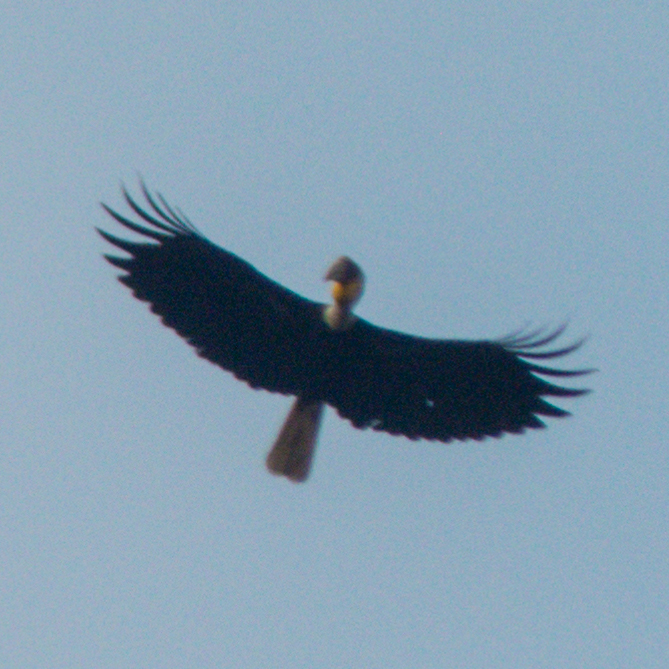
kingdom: Animalia
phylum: Chordata
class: Aves
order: Bucerotiformes
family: Bucerotidae
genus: Rhyticeros
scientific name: Rhyticeros undulatus
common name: Wreathed hornbill
